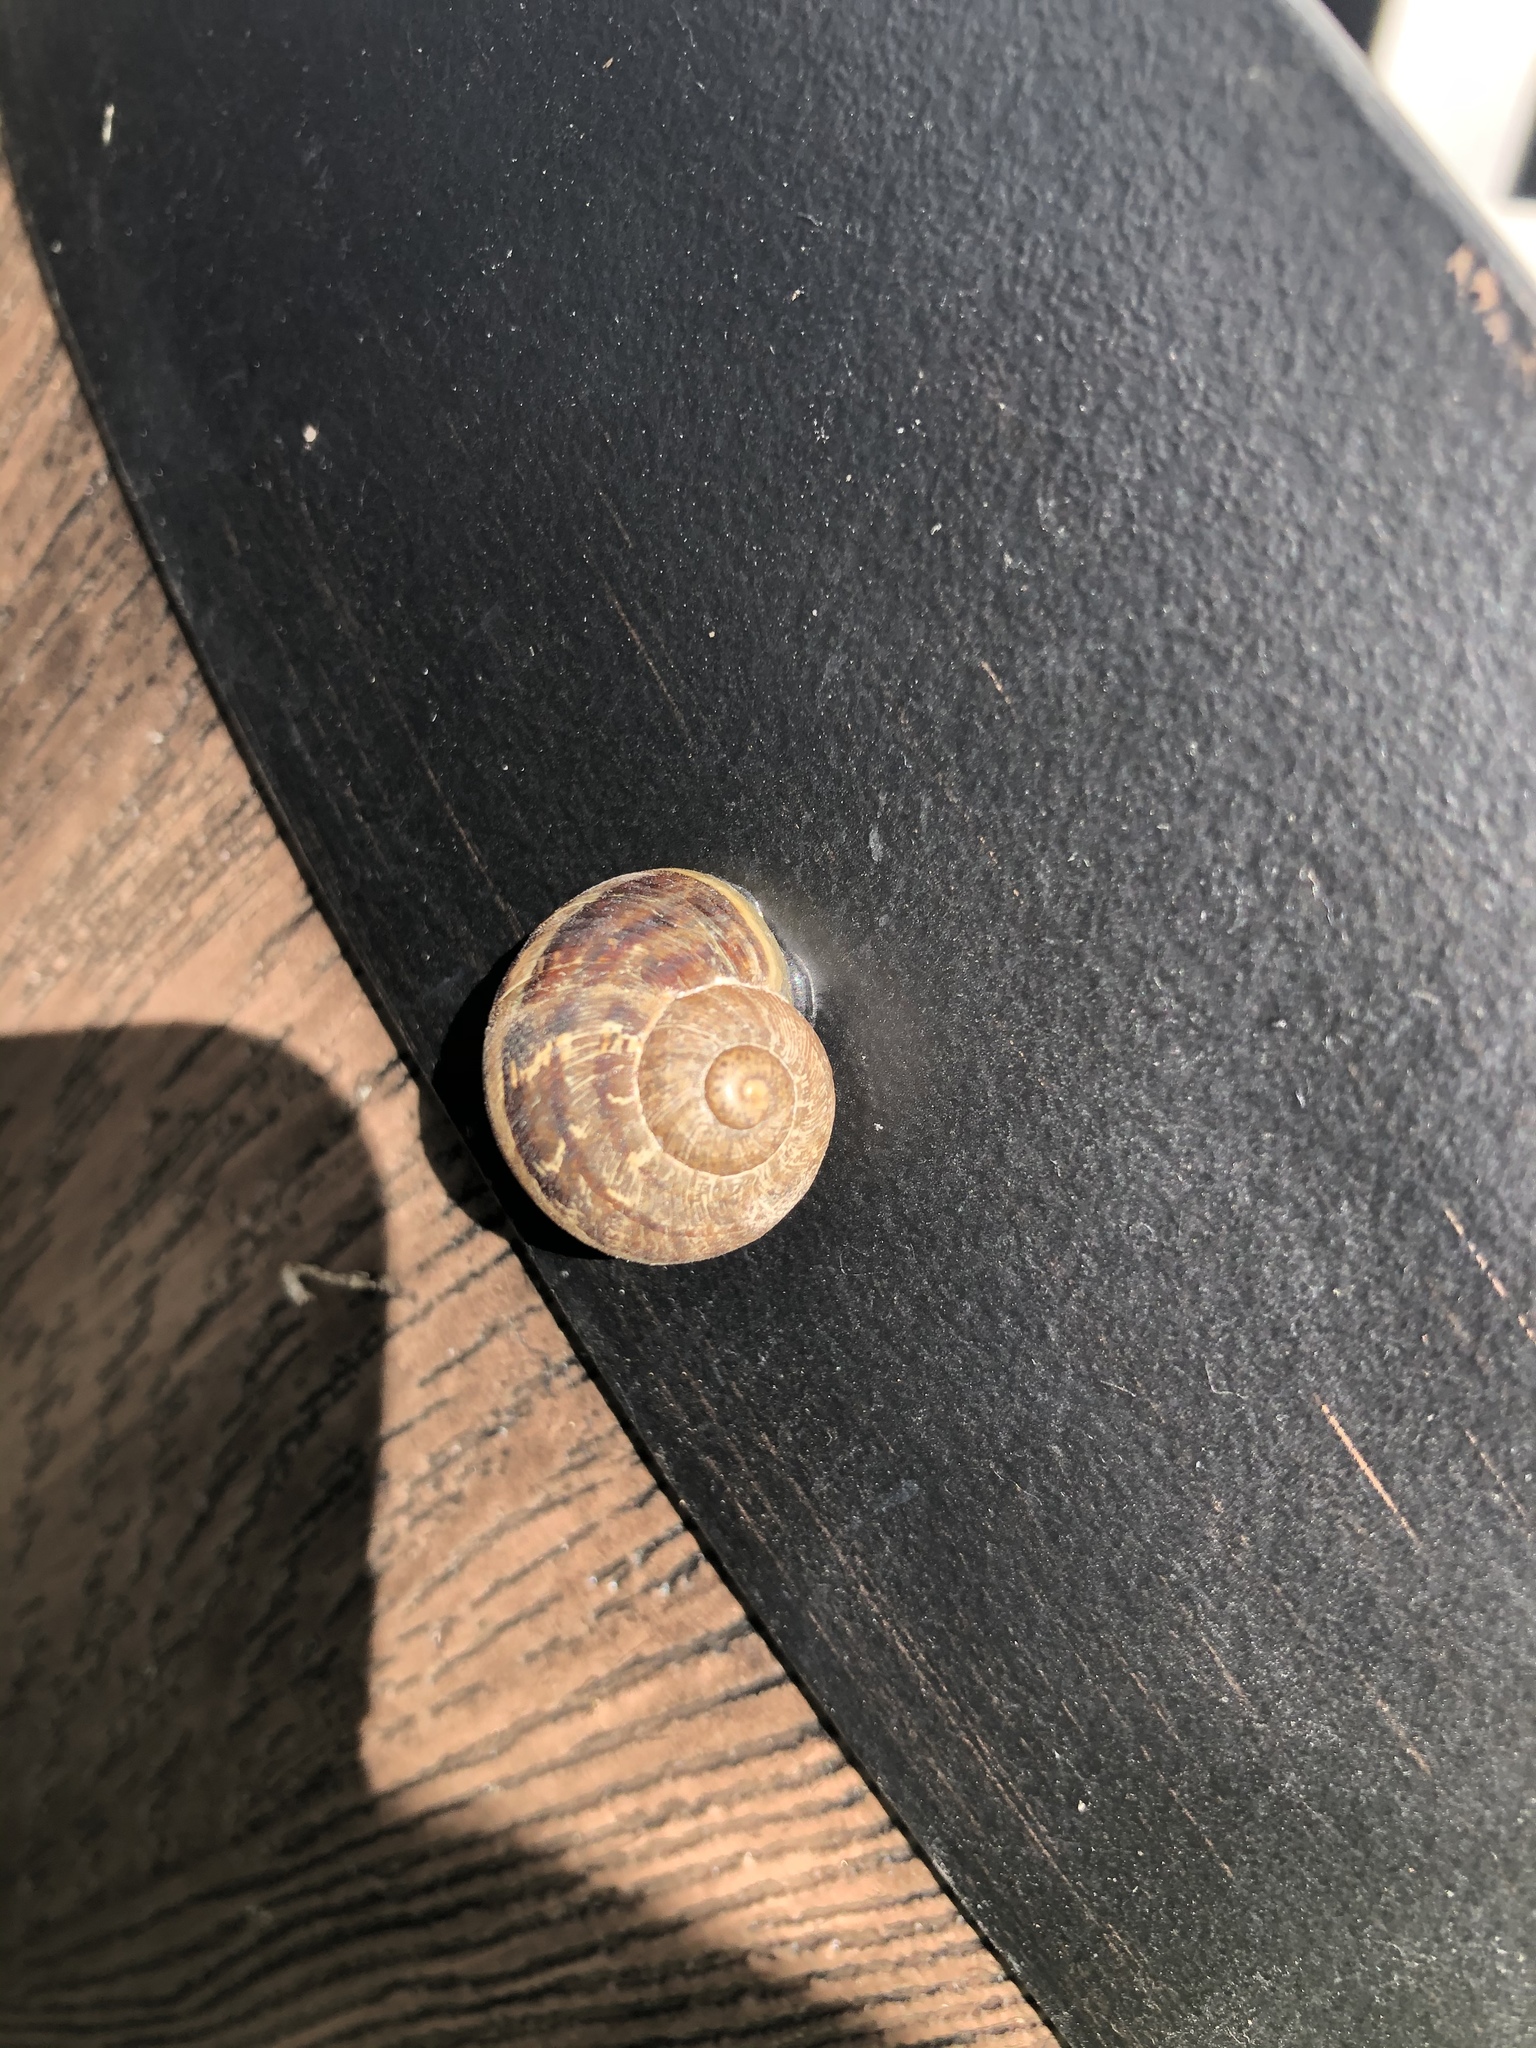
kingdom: Animalia
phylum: Mollusca
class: Gastropoda
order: Stylommatophora
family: Helicidae
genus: Cornu
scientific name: Cornu aspersum
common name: Brown garden snail
